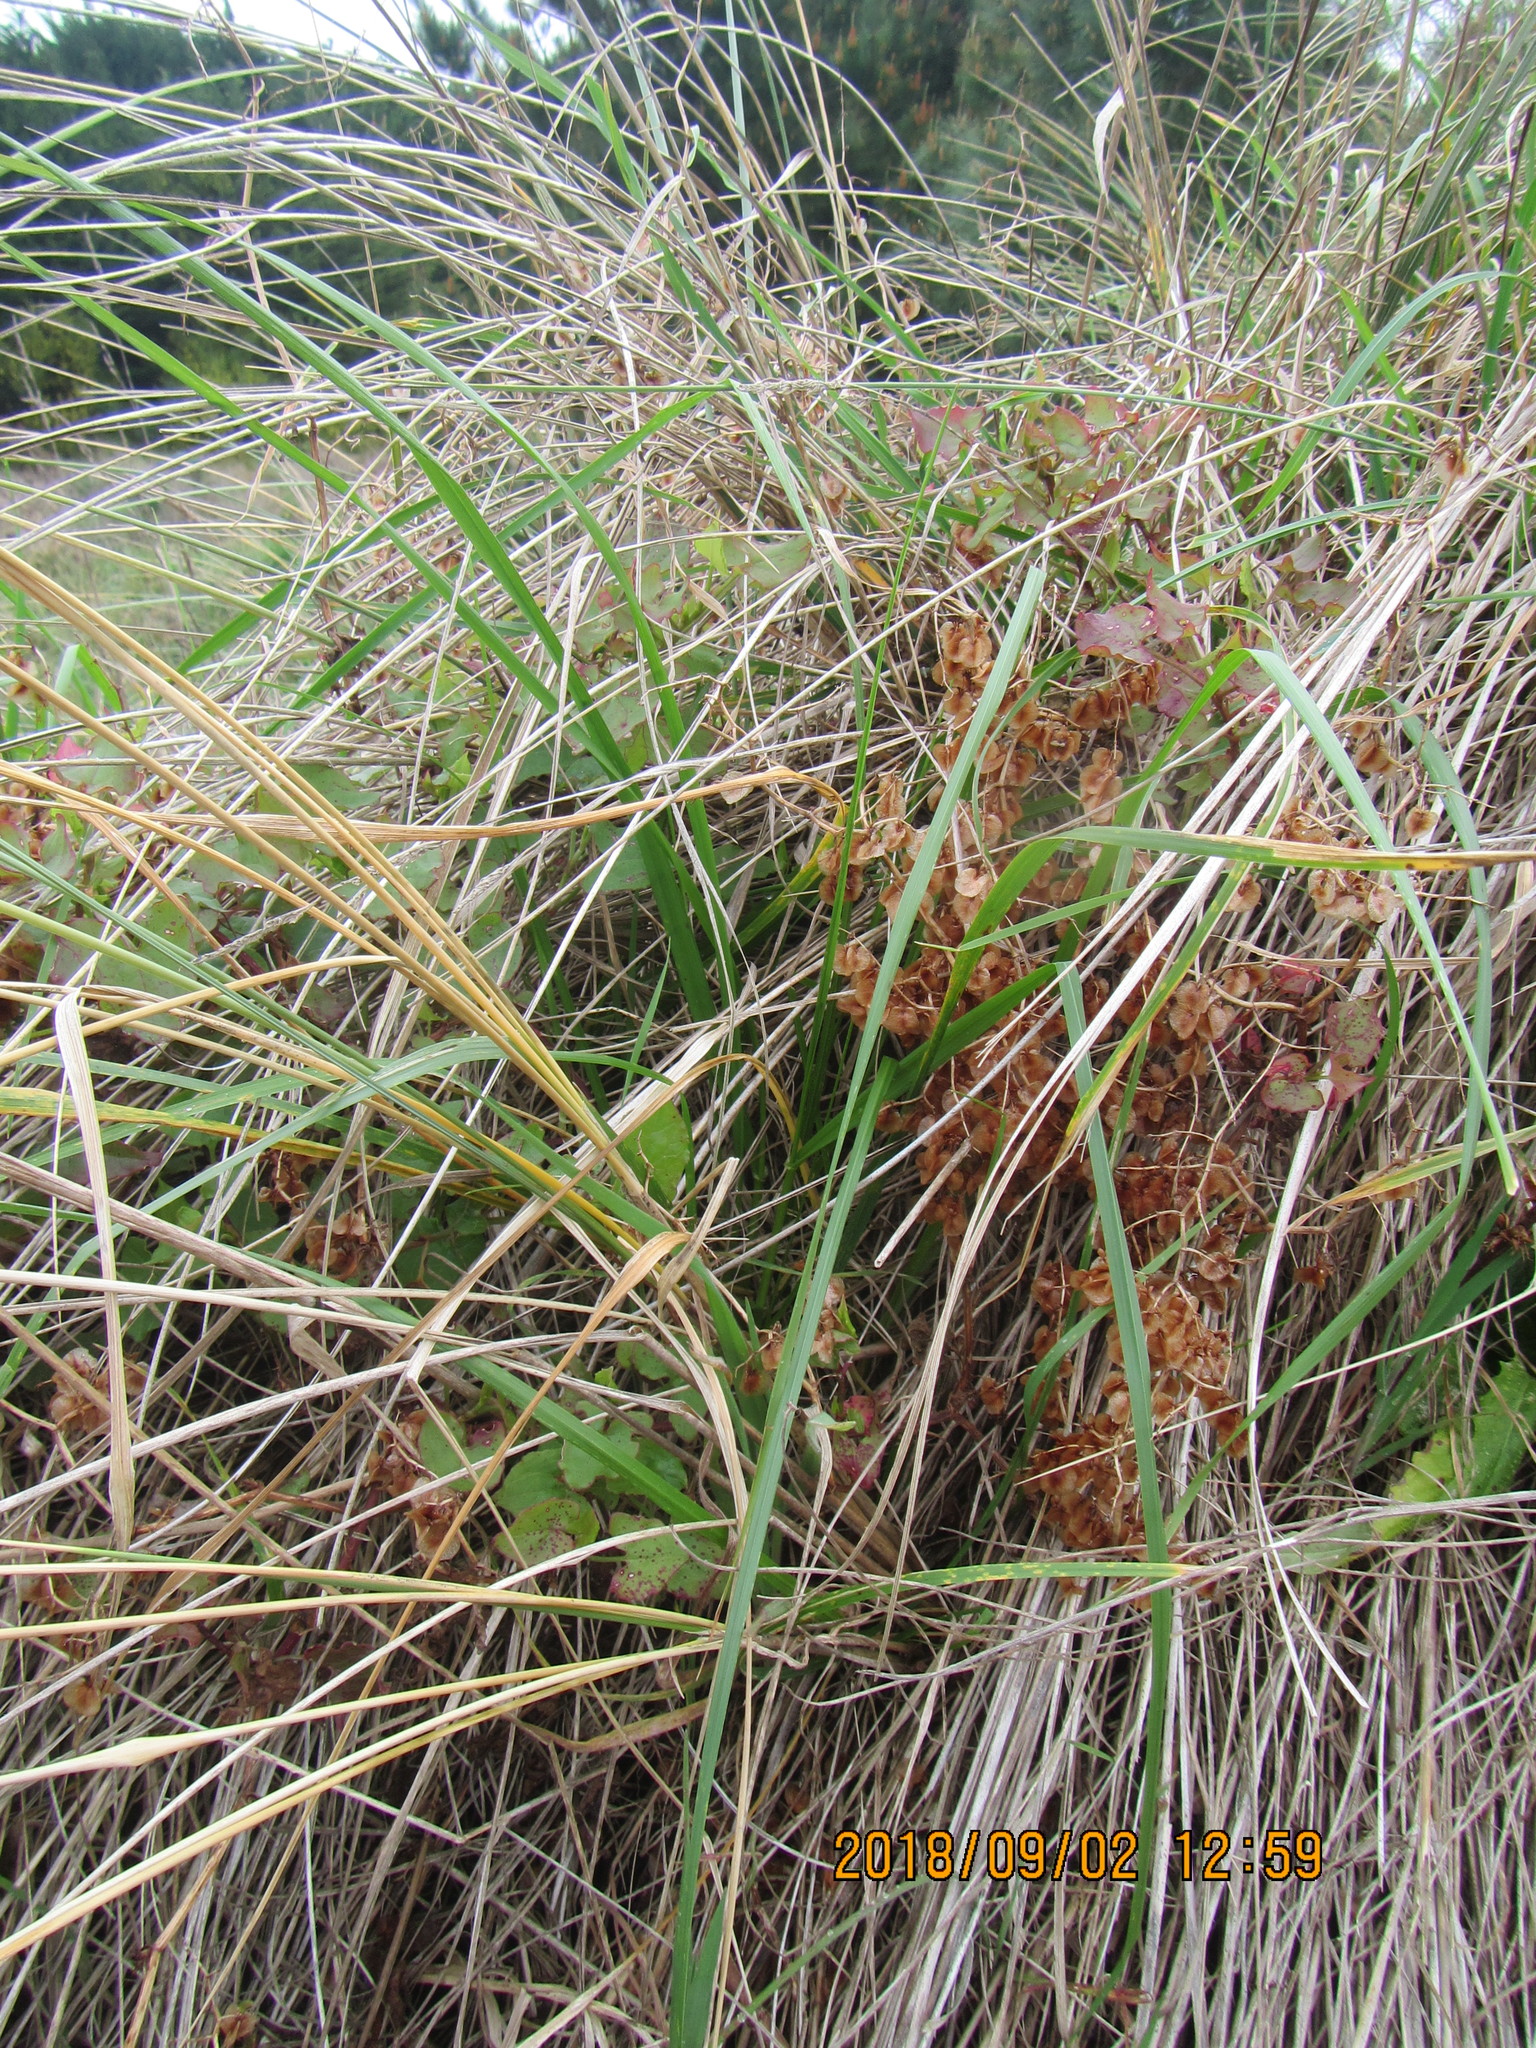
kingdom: Plantae
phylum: Tracheophyta
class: Magnoliopsida
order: Caryophyllales
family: Polygonaceae
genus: Rumex
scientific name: Rumex sagittatus
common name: Climbing dock
